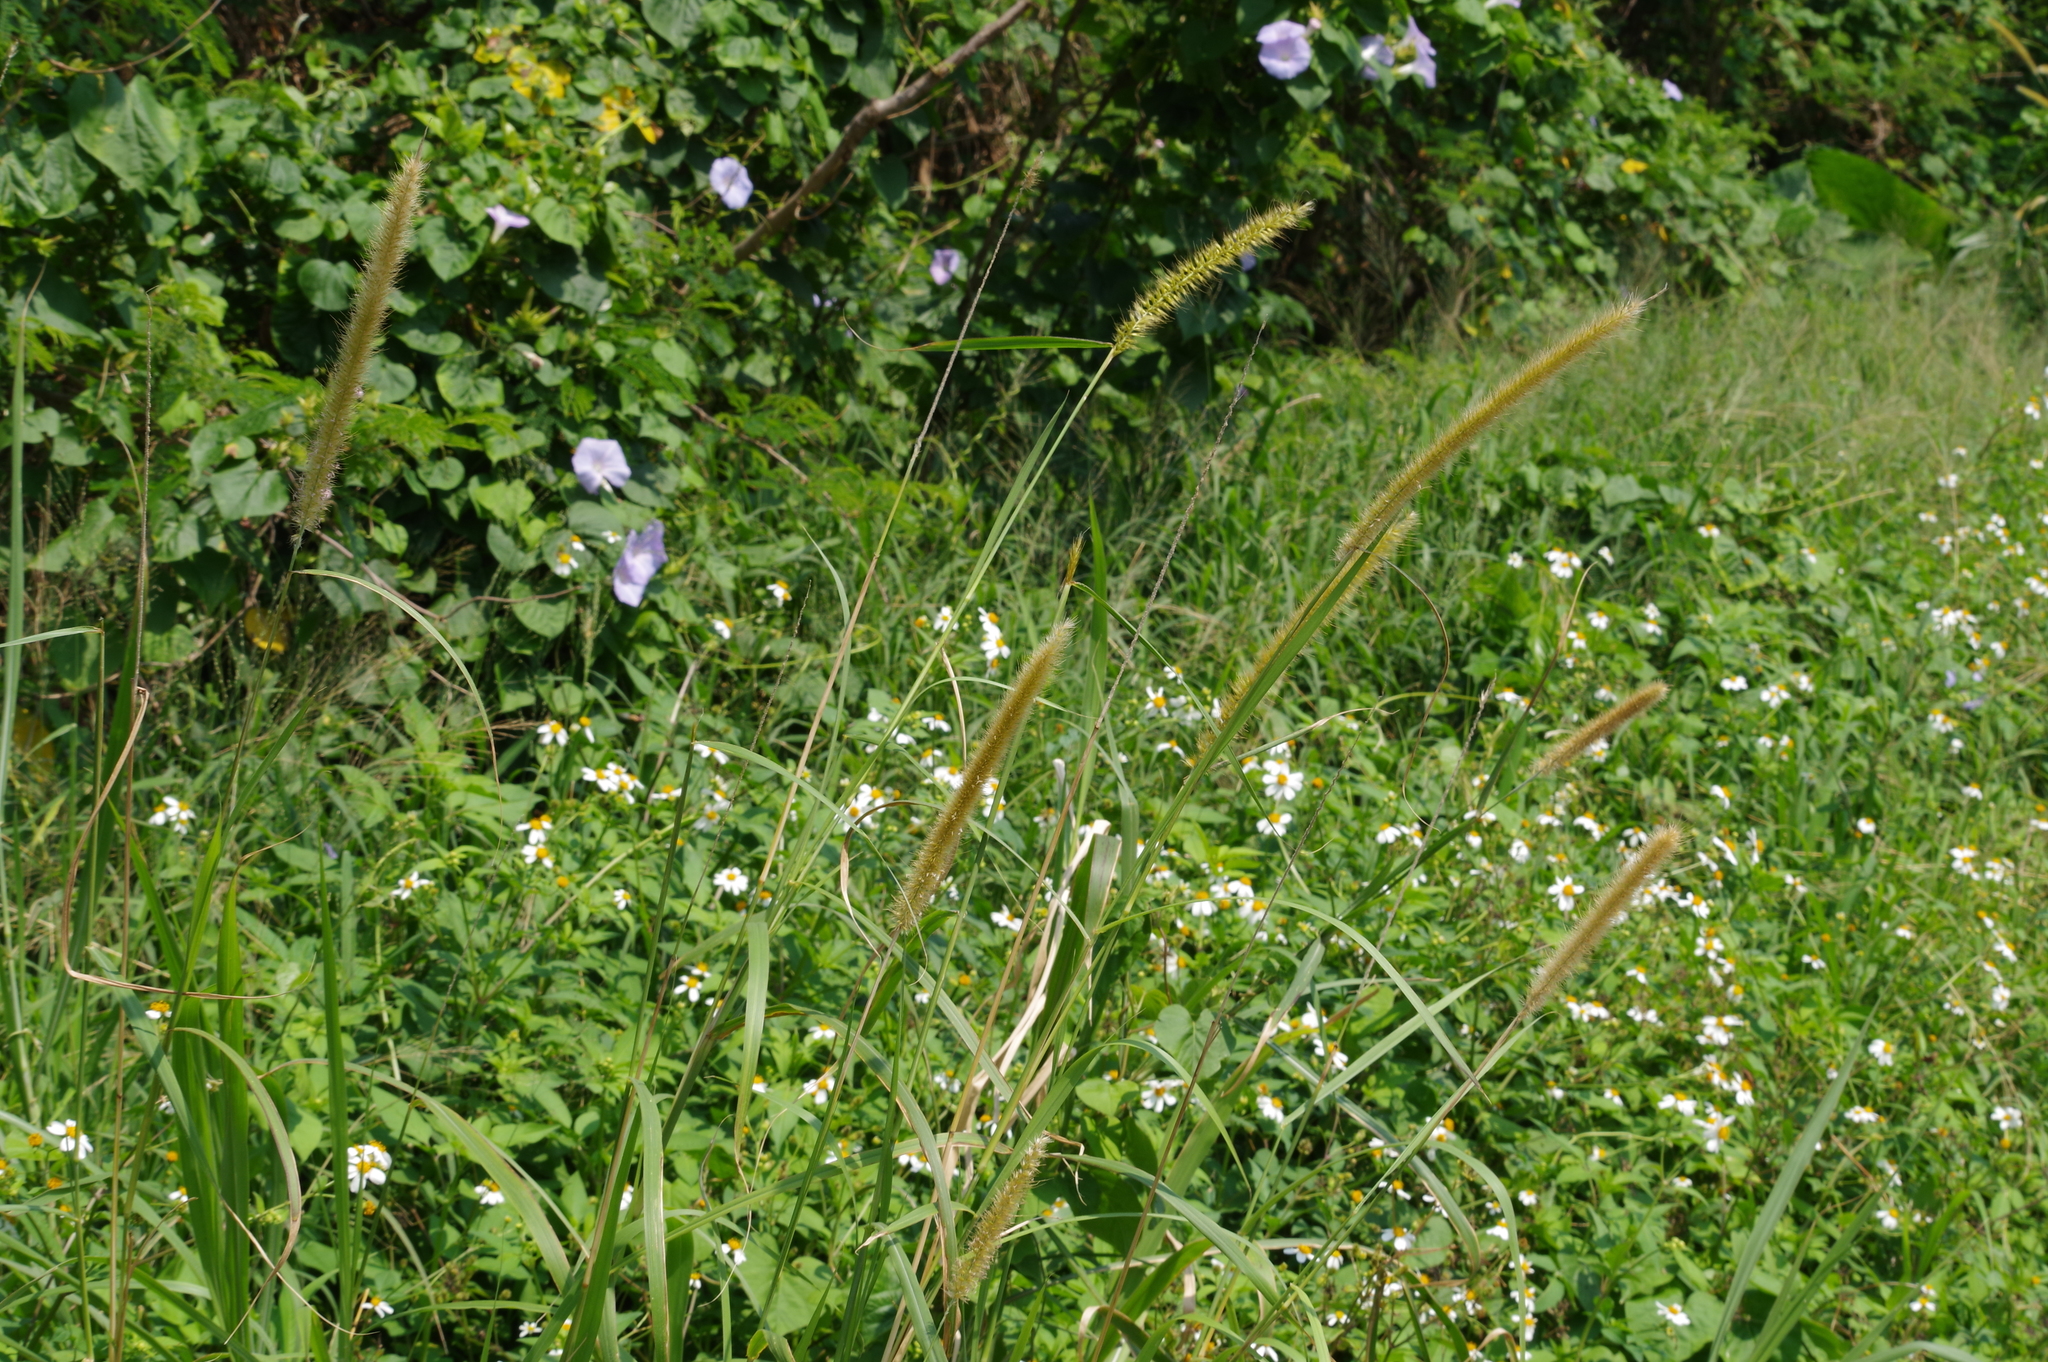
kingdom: Plantae
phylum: Tracheophyta
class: Liliopsida
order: Poales
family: Poaceae
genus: Cenchrus
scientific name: Cenchrus purpureus
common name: Elephant grass
